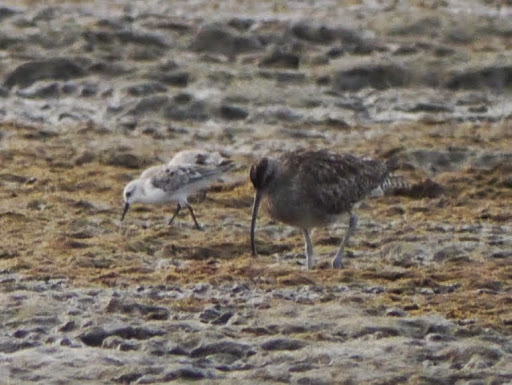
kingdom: Animalia
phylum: Chordata
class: Aves
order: Charadriiformes
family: Scolopacidae
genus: Numenius
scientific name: Numenius phaeopus
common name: Whimbrel
